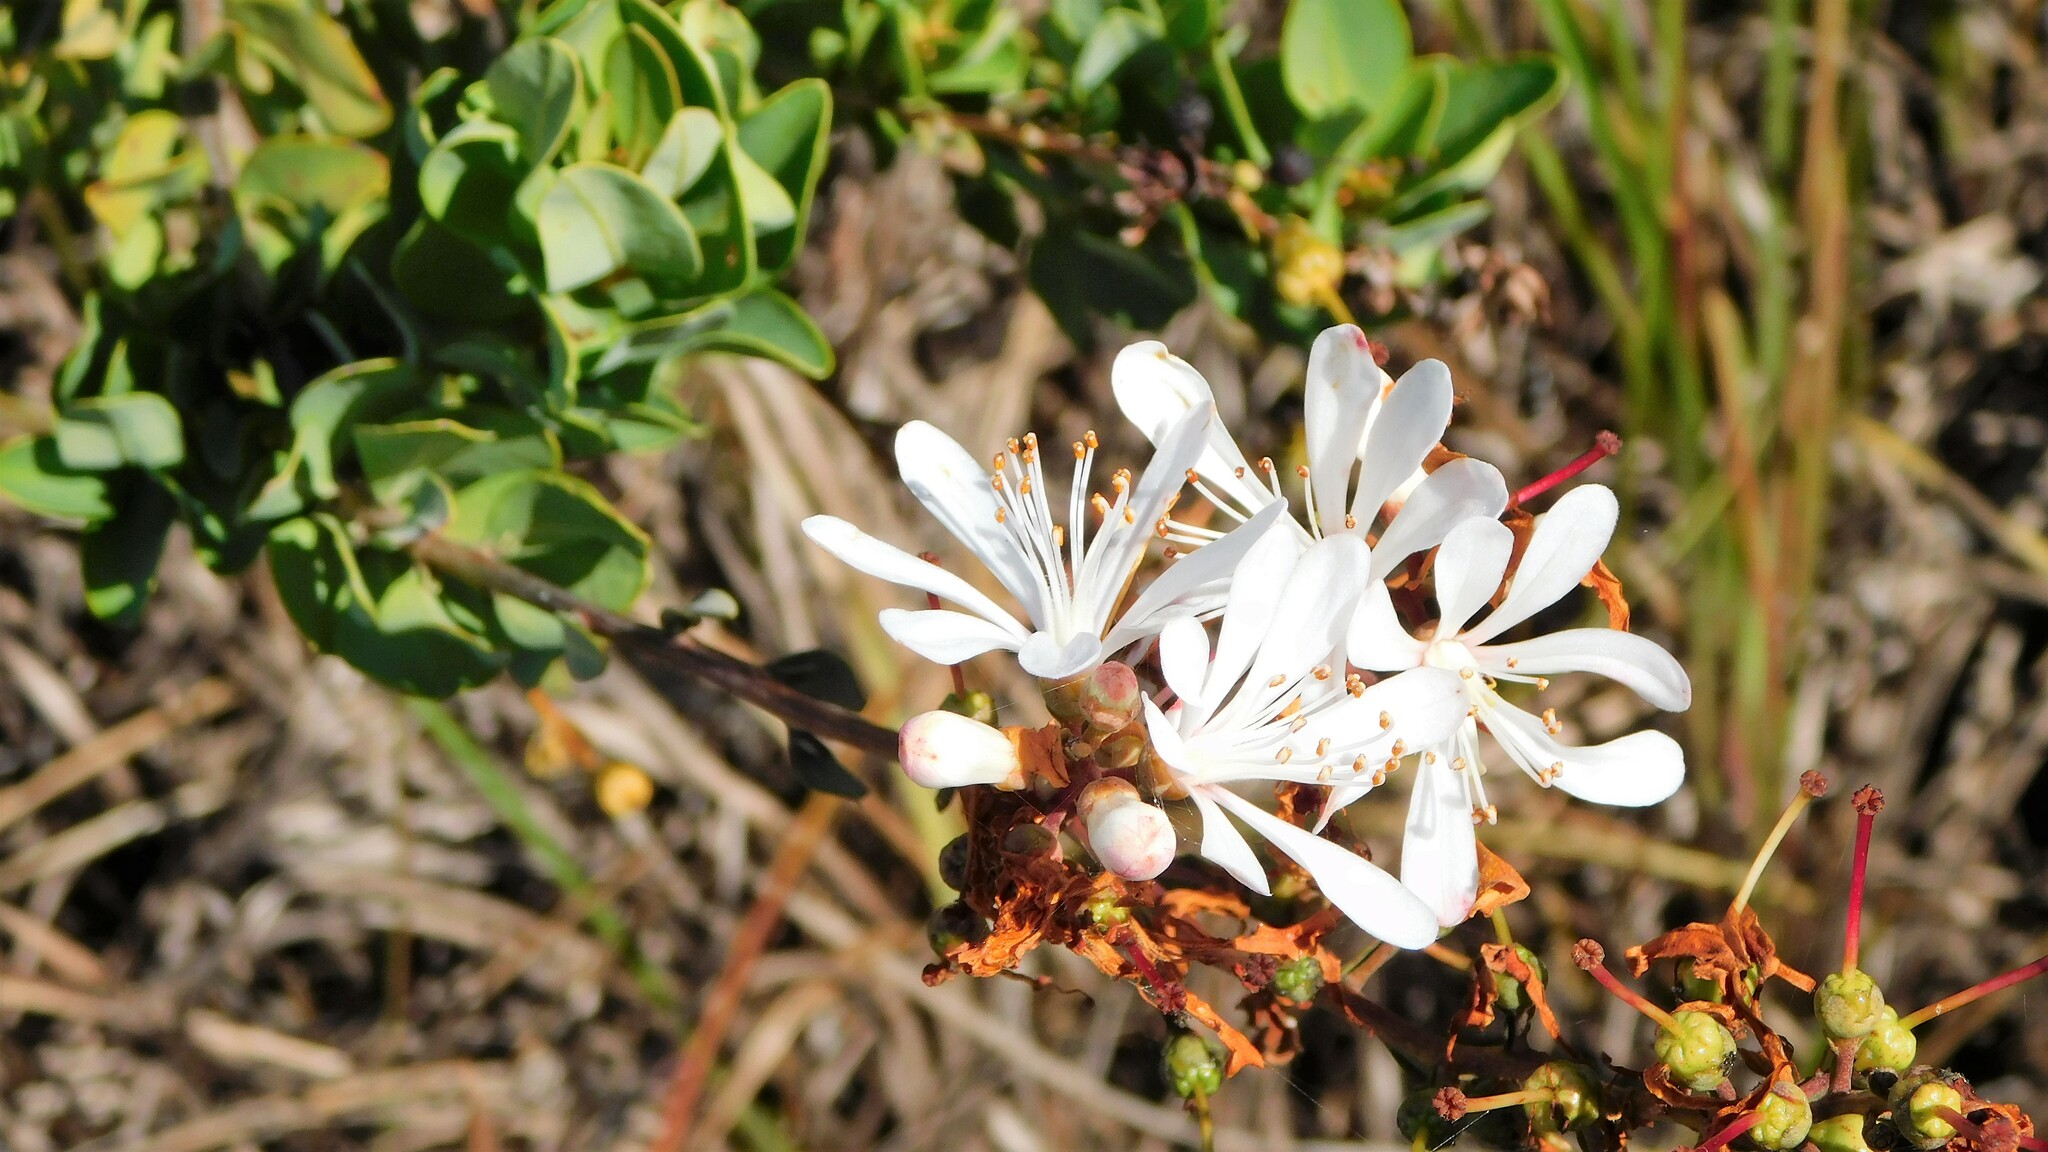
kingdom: Plantae
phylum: Tracheophyta
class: Magnoliopsida
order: Ericales
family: Ericaceae
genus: Bejaria
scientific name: Bejaria racemosa
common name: Tarflower
